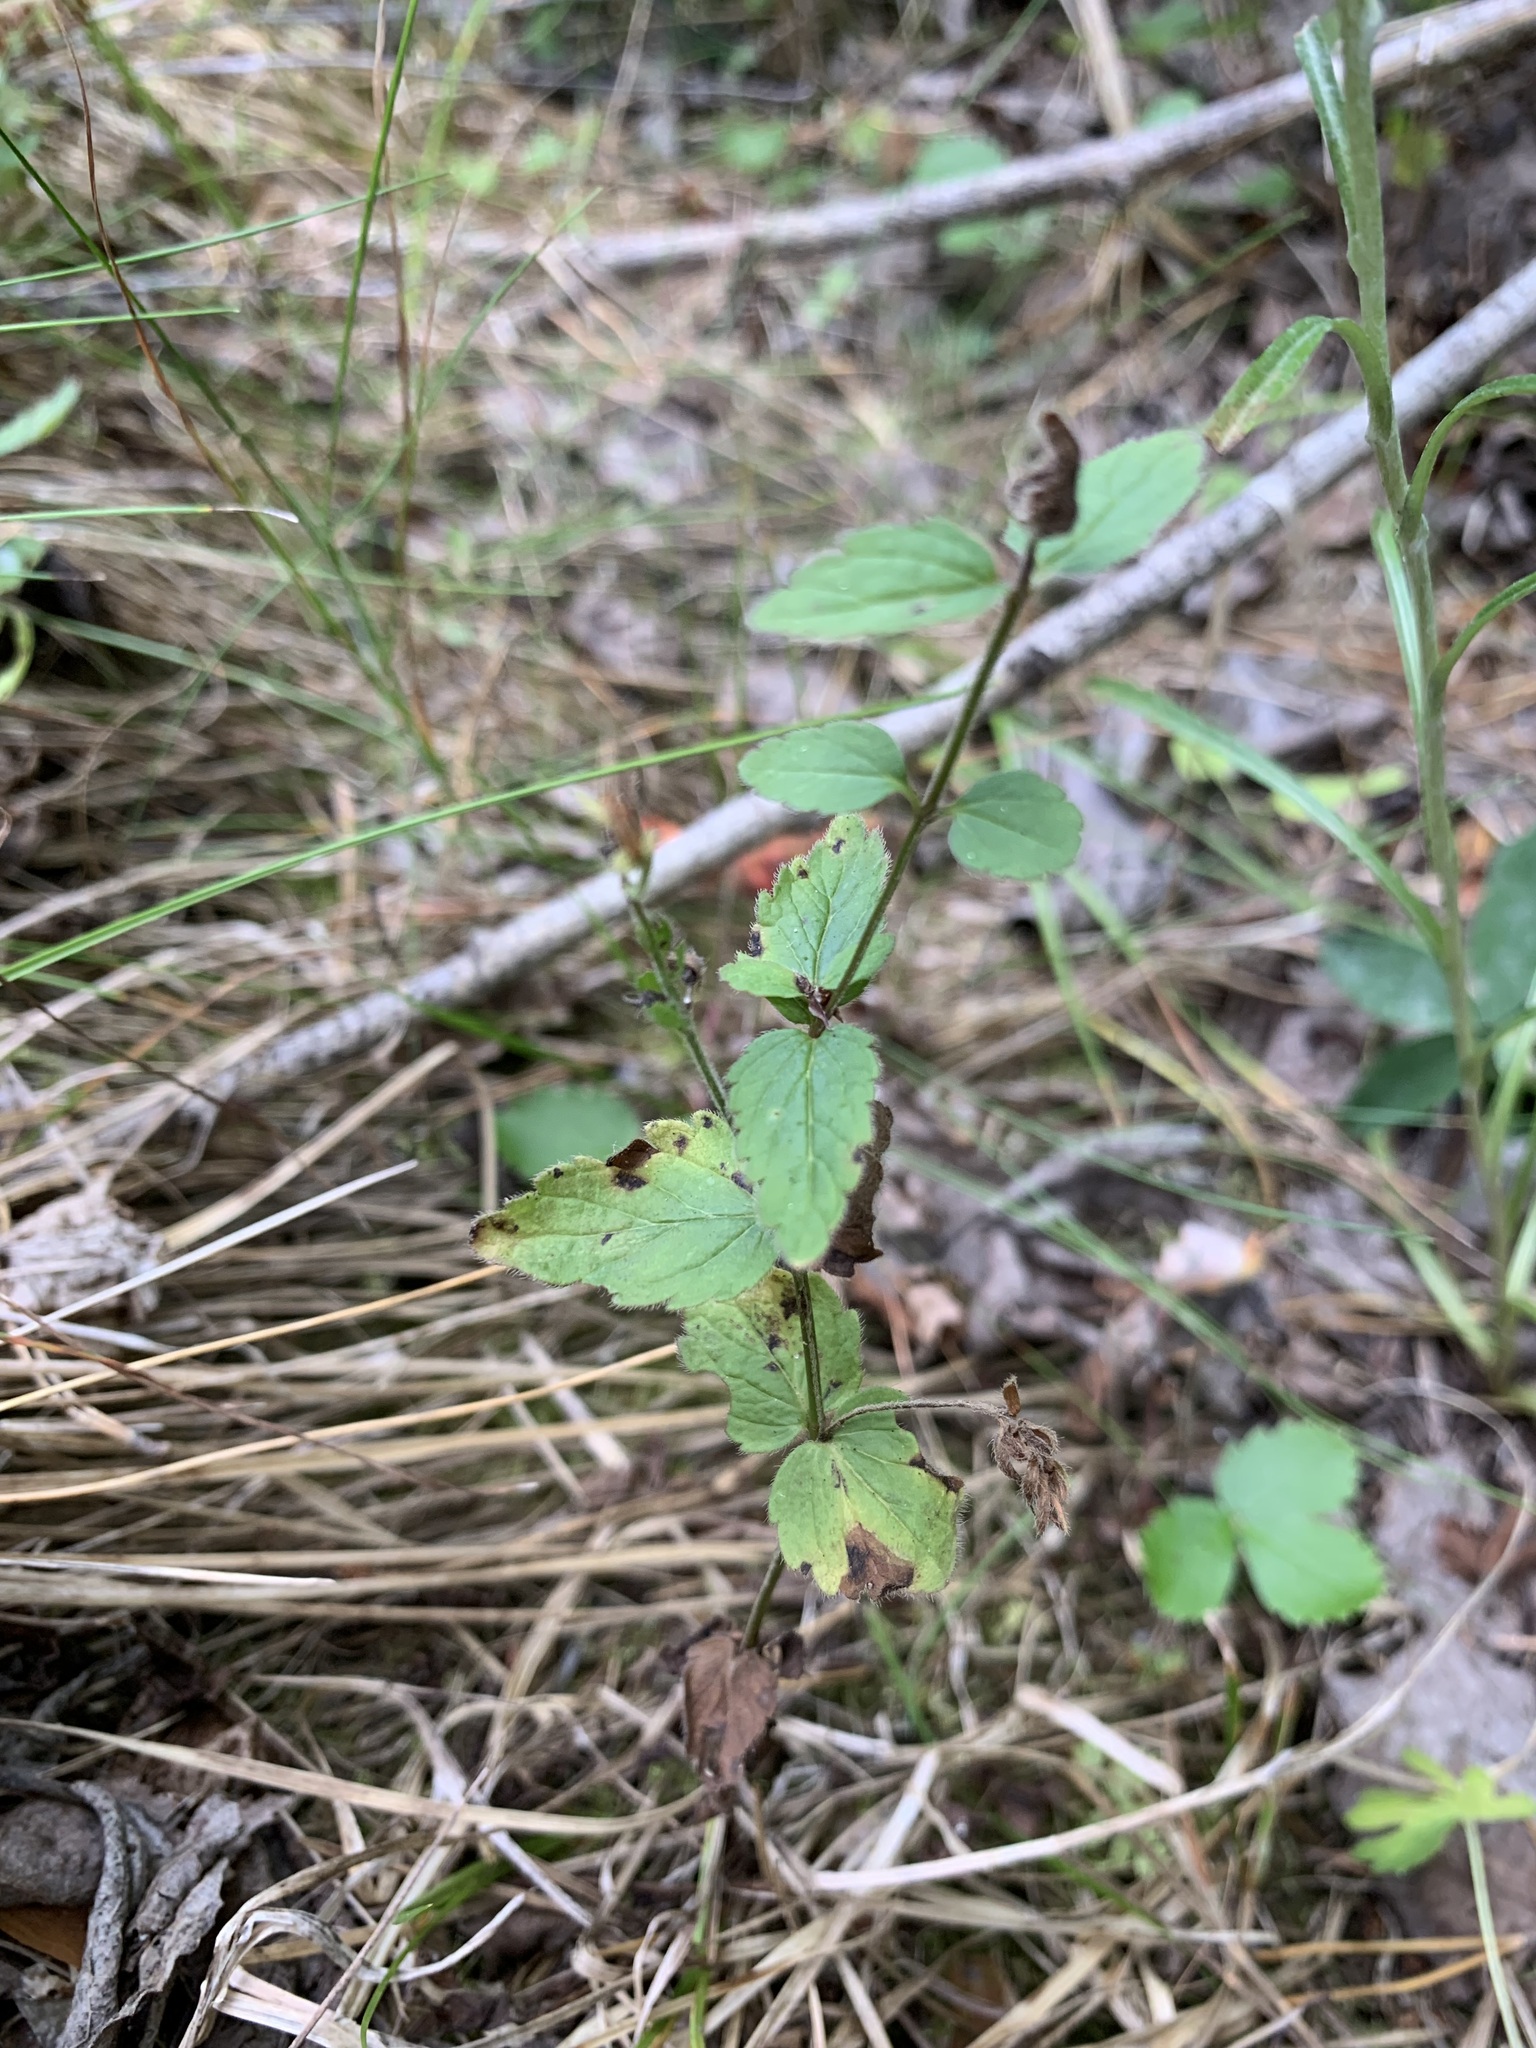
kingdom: Plantae
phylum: Tracheophyta
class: Magnoliopsida
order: Lamiales
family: Plantaginaceae
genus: Veronica
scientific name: Veronica chamaedrys
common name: Germander speedwell
